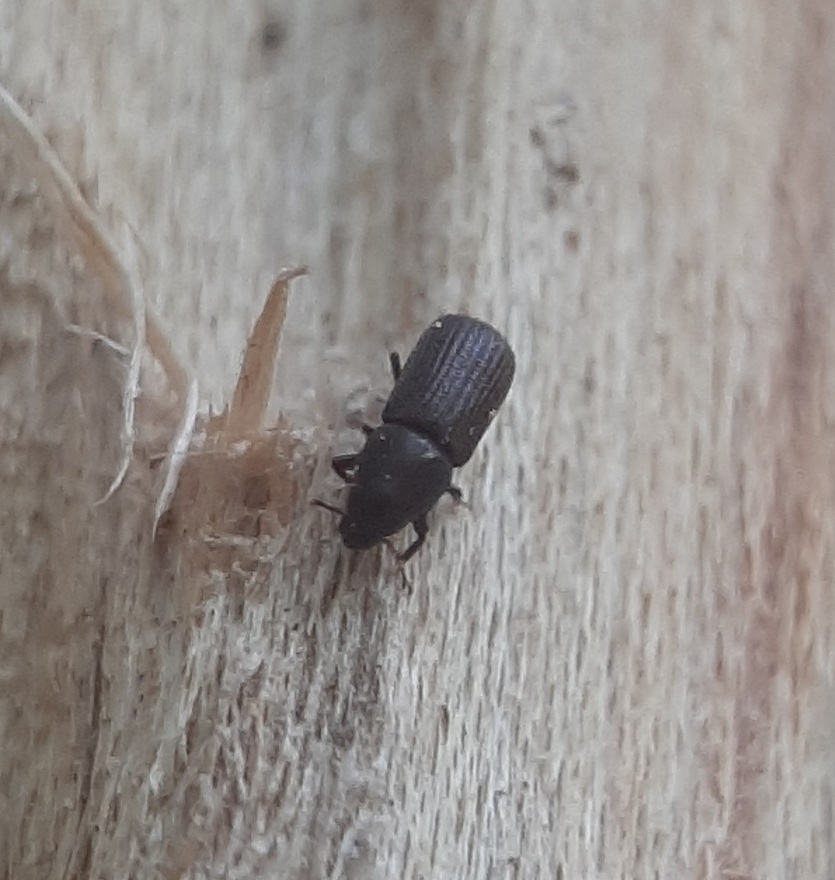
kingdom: Animalia
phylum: Arthropoda
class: Insecta
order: Coleoptera
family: Curculionidae
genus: Stenoscelis
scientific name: Stenoscelis brevis
